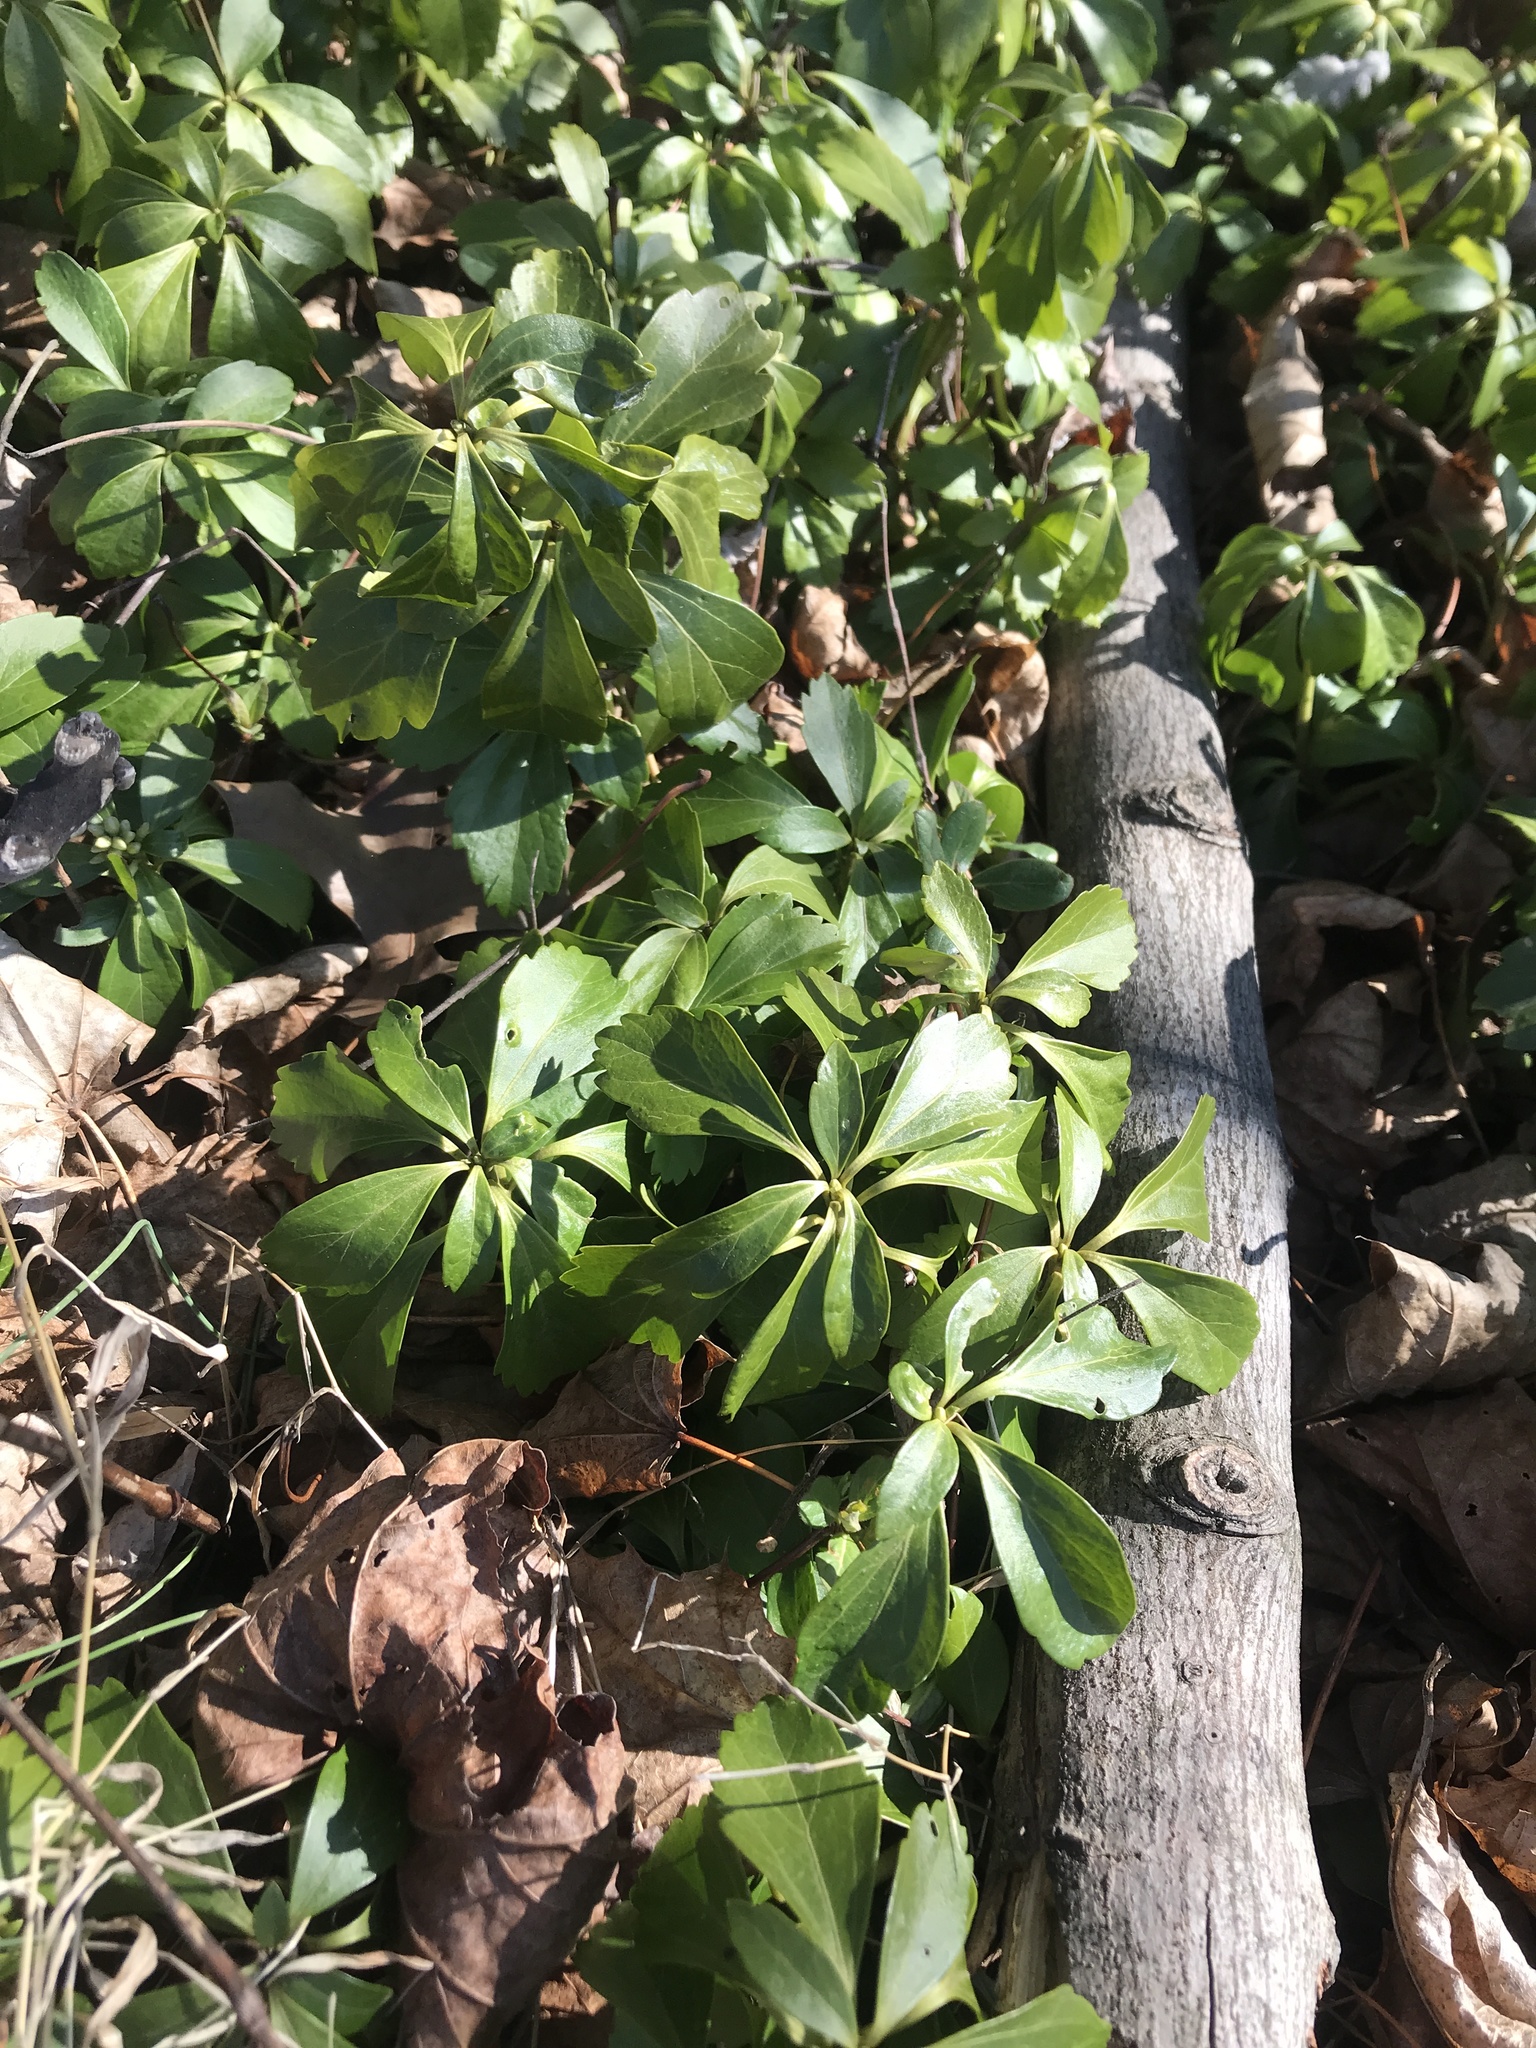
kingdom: Plantae
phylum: Tracheophyta
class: Magnoliopsida
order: Buxales
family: Buxaceae
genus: Pachysandra
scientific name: Pachysandra terminalis
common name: Japanese pachysandra
